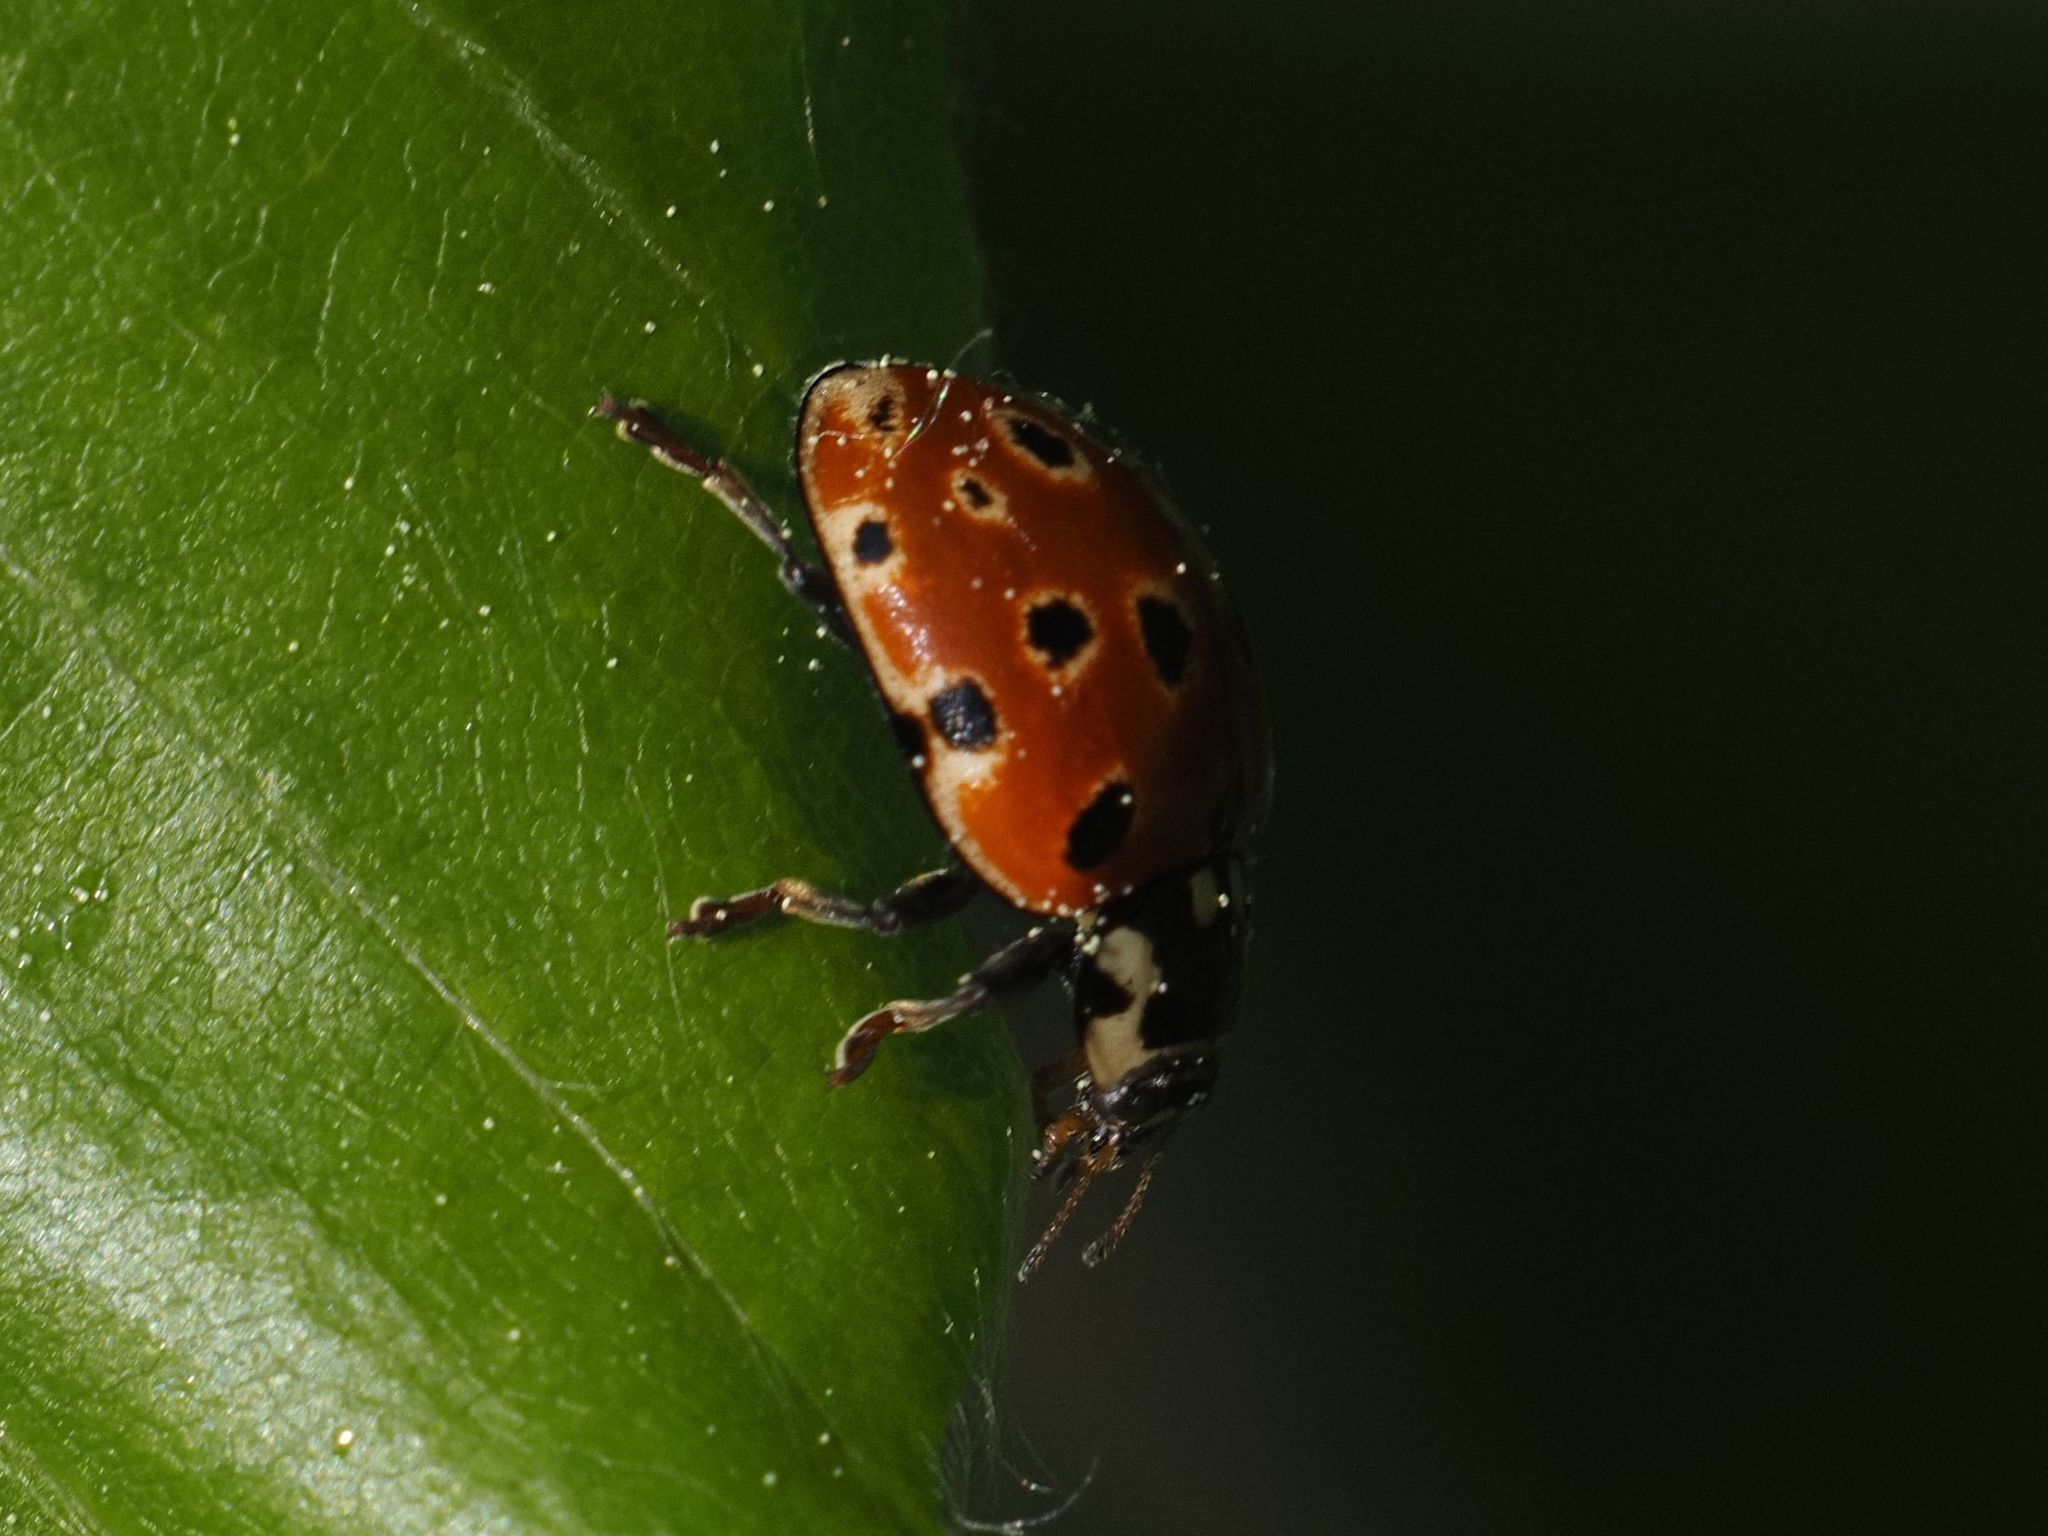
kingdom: Animalia
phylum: Arthropoda
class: Insecta
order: Coleoptera
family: Coccinellidae
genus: Anatis
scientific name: Anatis ocellata
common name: Eyed ladybird
